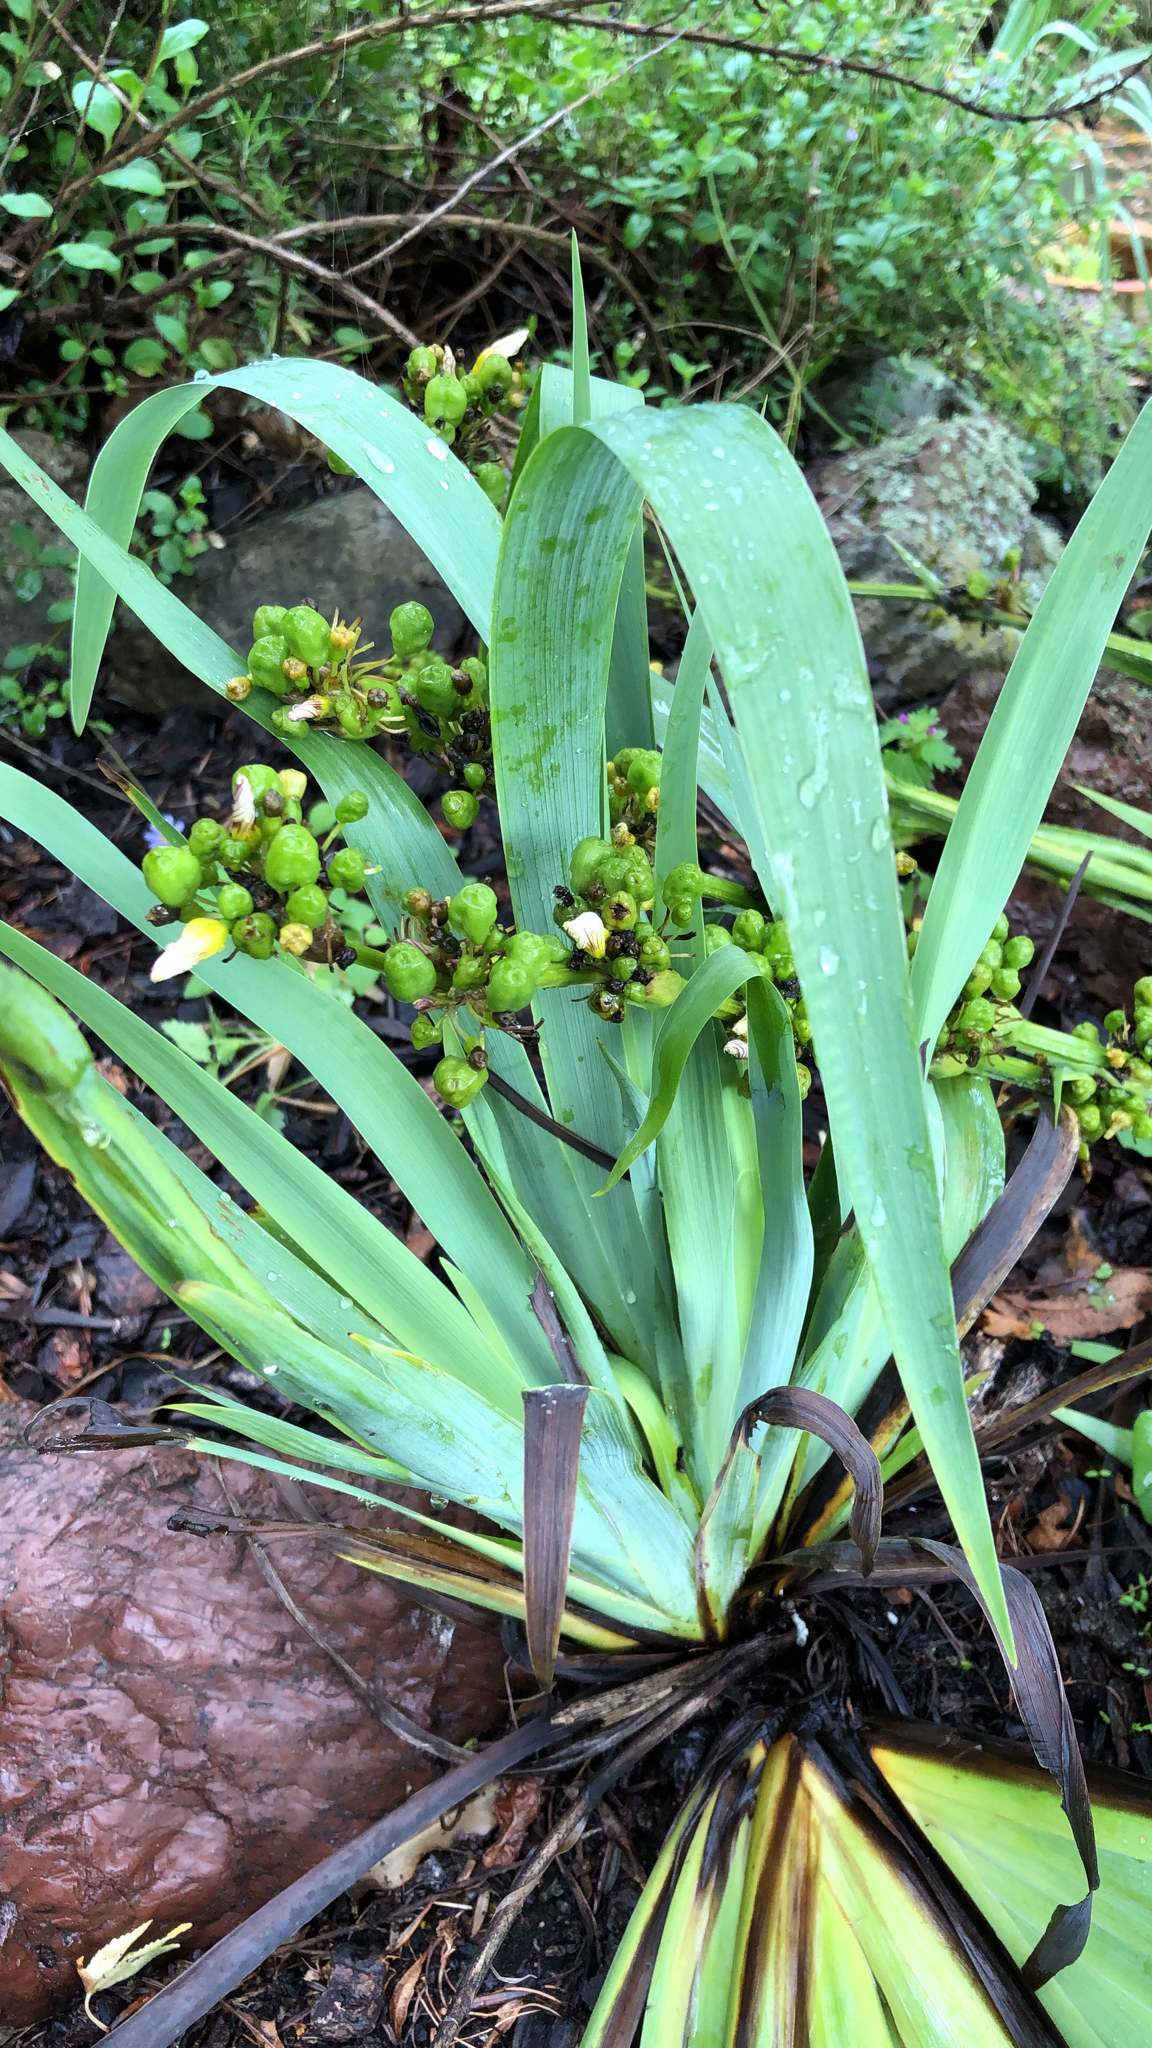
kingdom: Plantae
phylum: Tracheophyta
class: Liliopsida
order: Asparagales
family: Iridaceae
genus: Sisyrinchium
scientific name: Sisyrinchium striatum
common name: Pale yellow-eyed-grass
